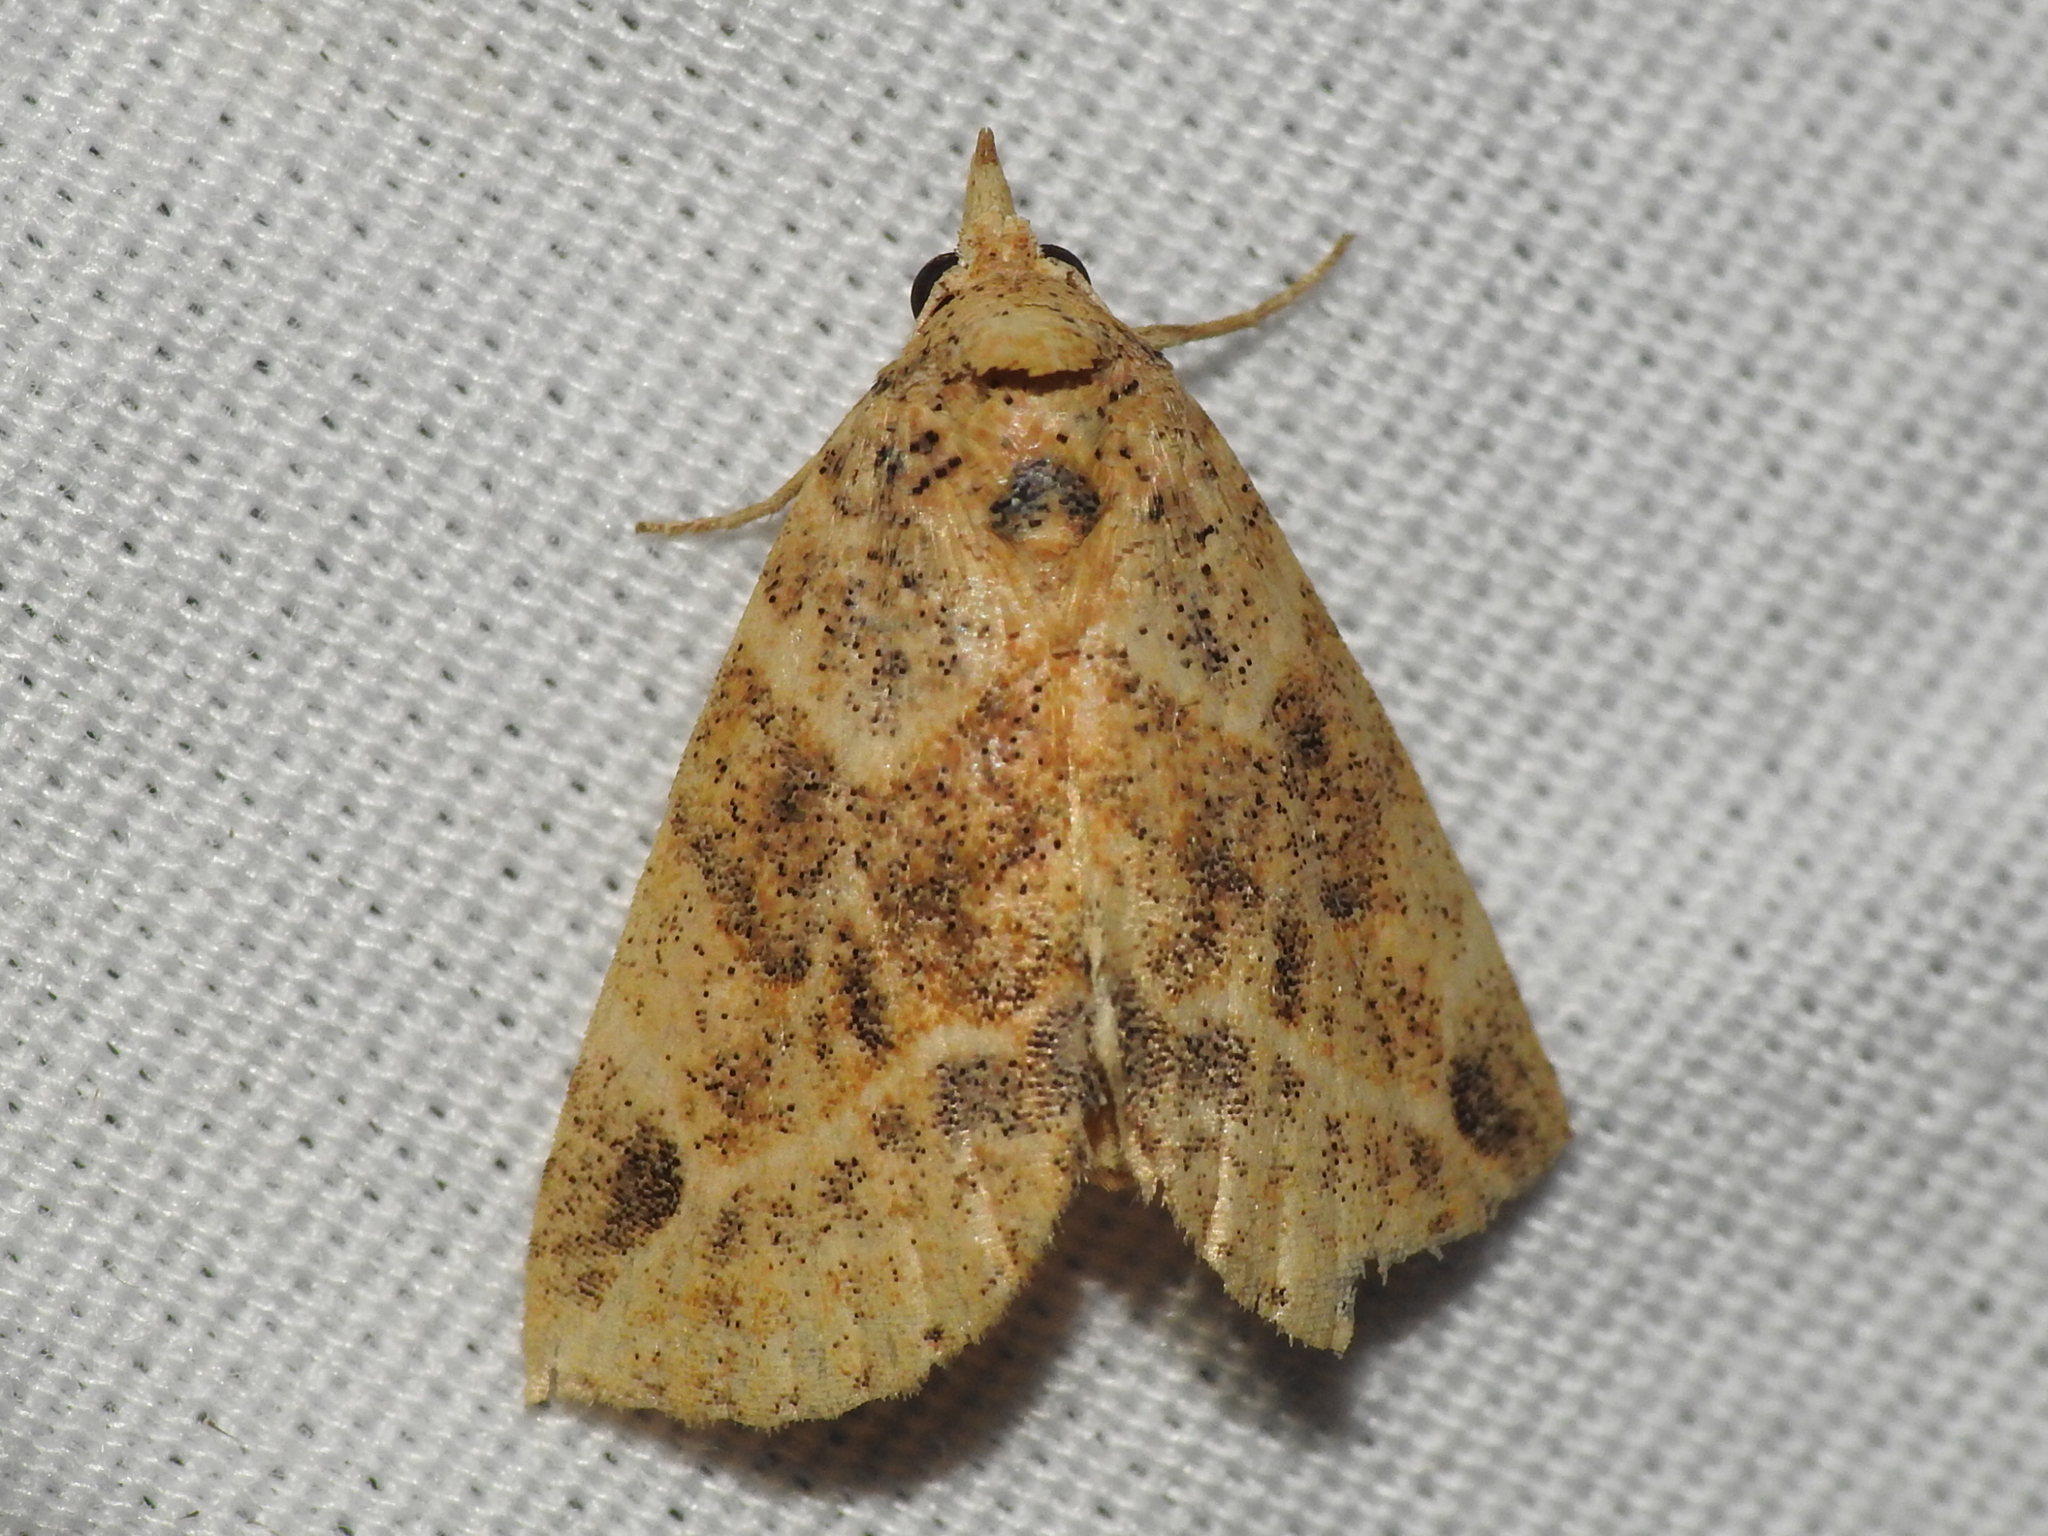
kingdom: Animalia
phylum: Arthropoda
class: Insecta
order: Lepidoptera
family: Erebidae
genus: Isogona
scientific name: Isogona snowi
